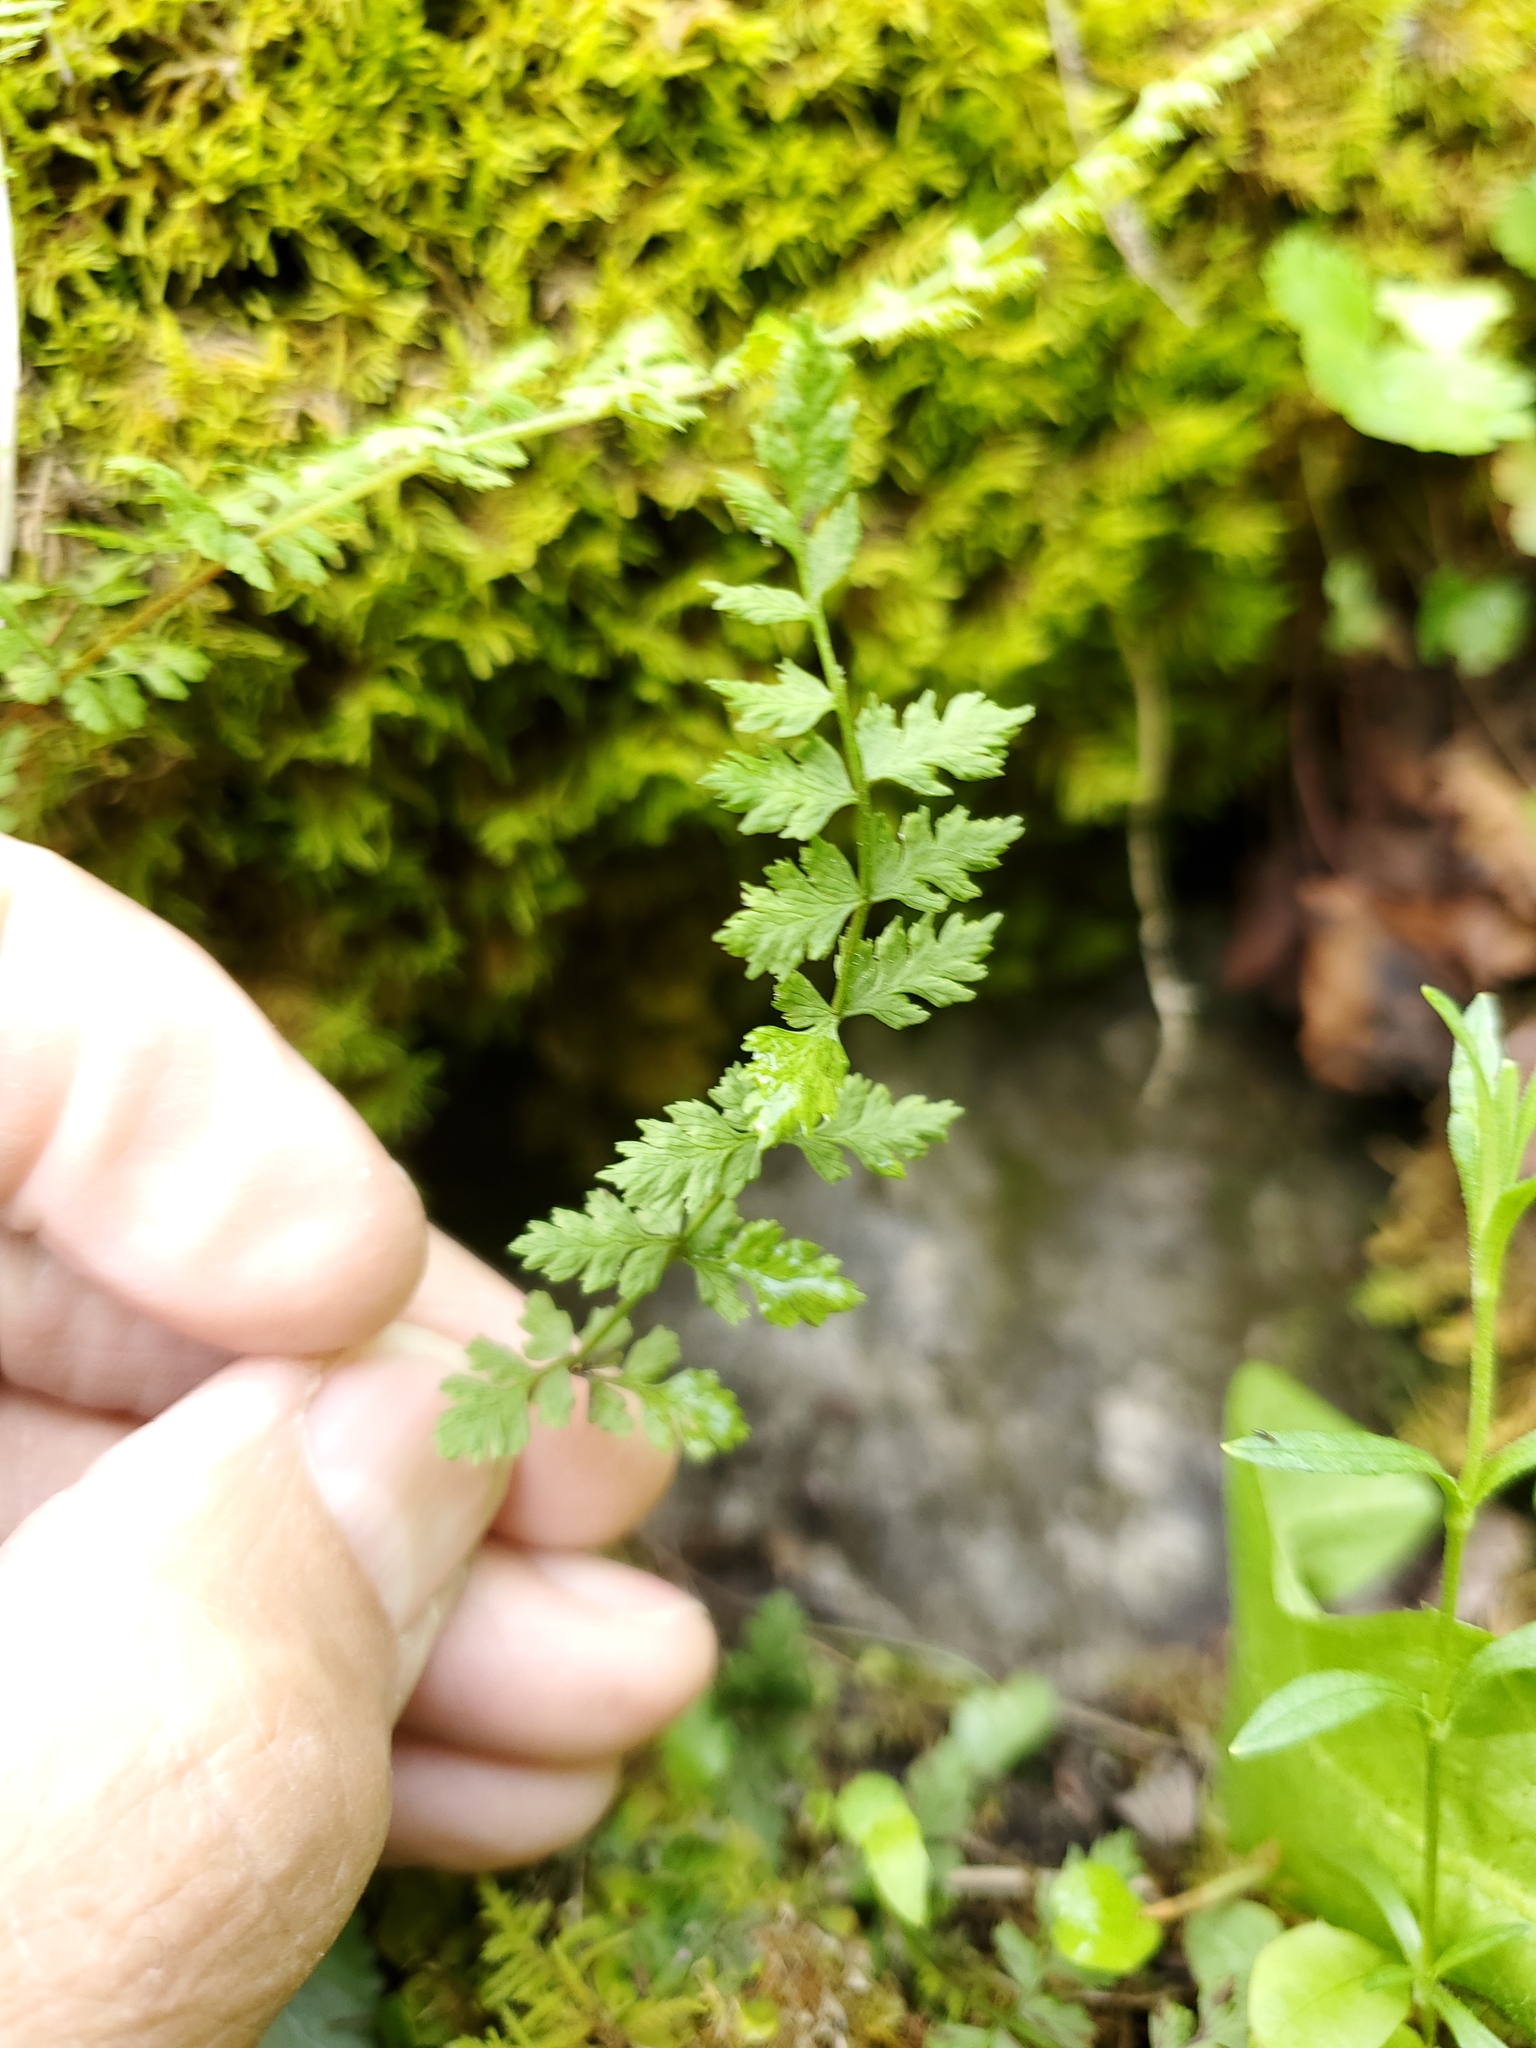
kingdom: Plantae
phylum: Tracheophyta
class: Polypodiopsida
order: Polypodiales
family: Cystopteridaceae
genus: Cystopteris
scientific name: Cystopteris fragilis
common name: Brittle bladder fern
